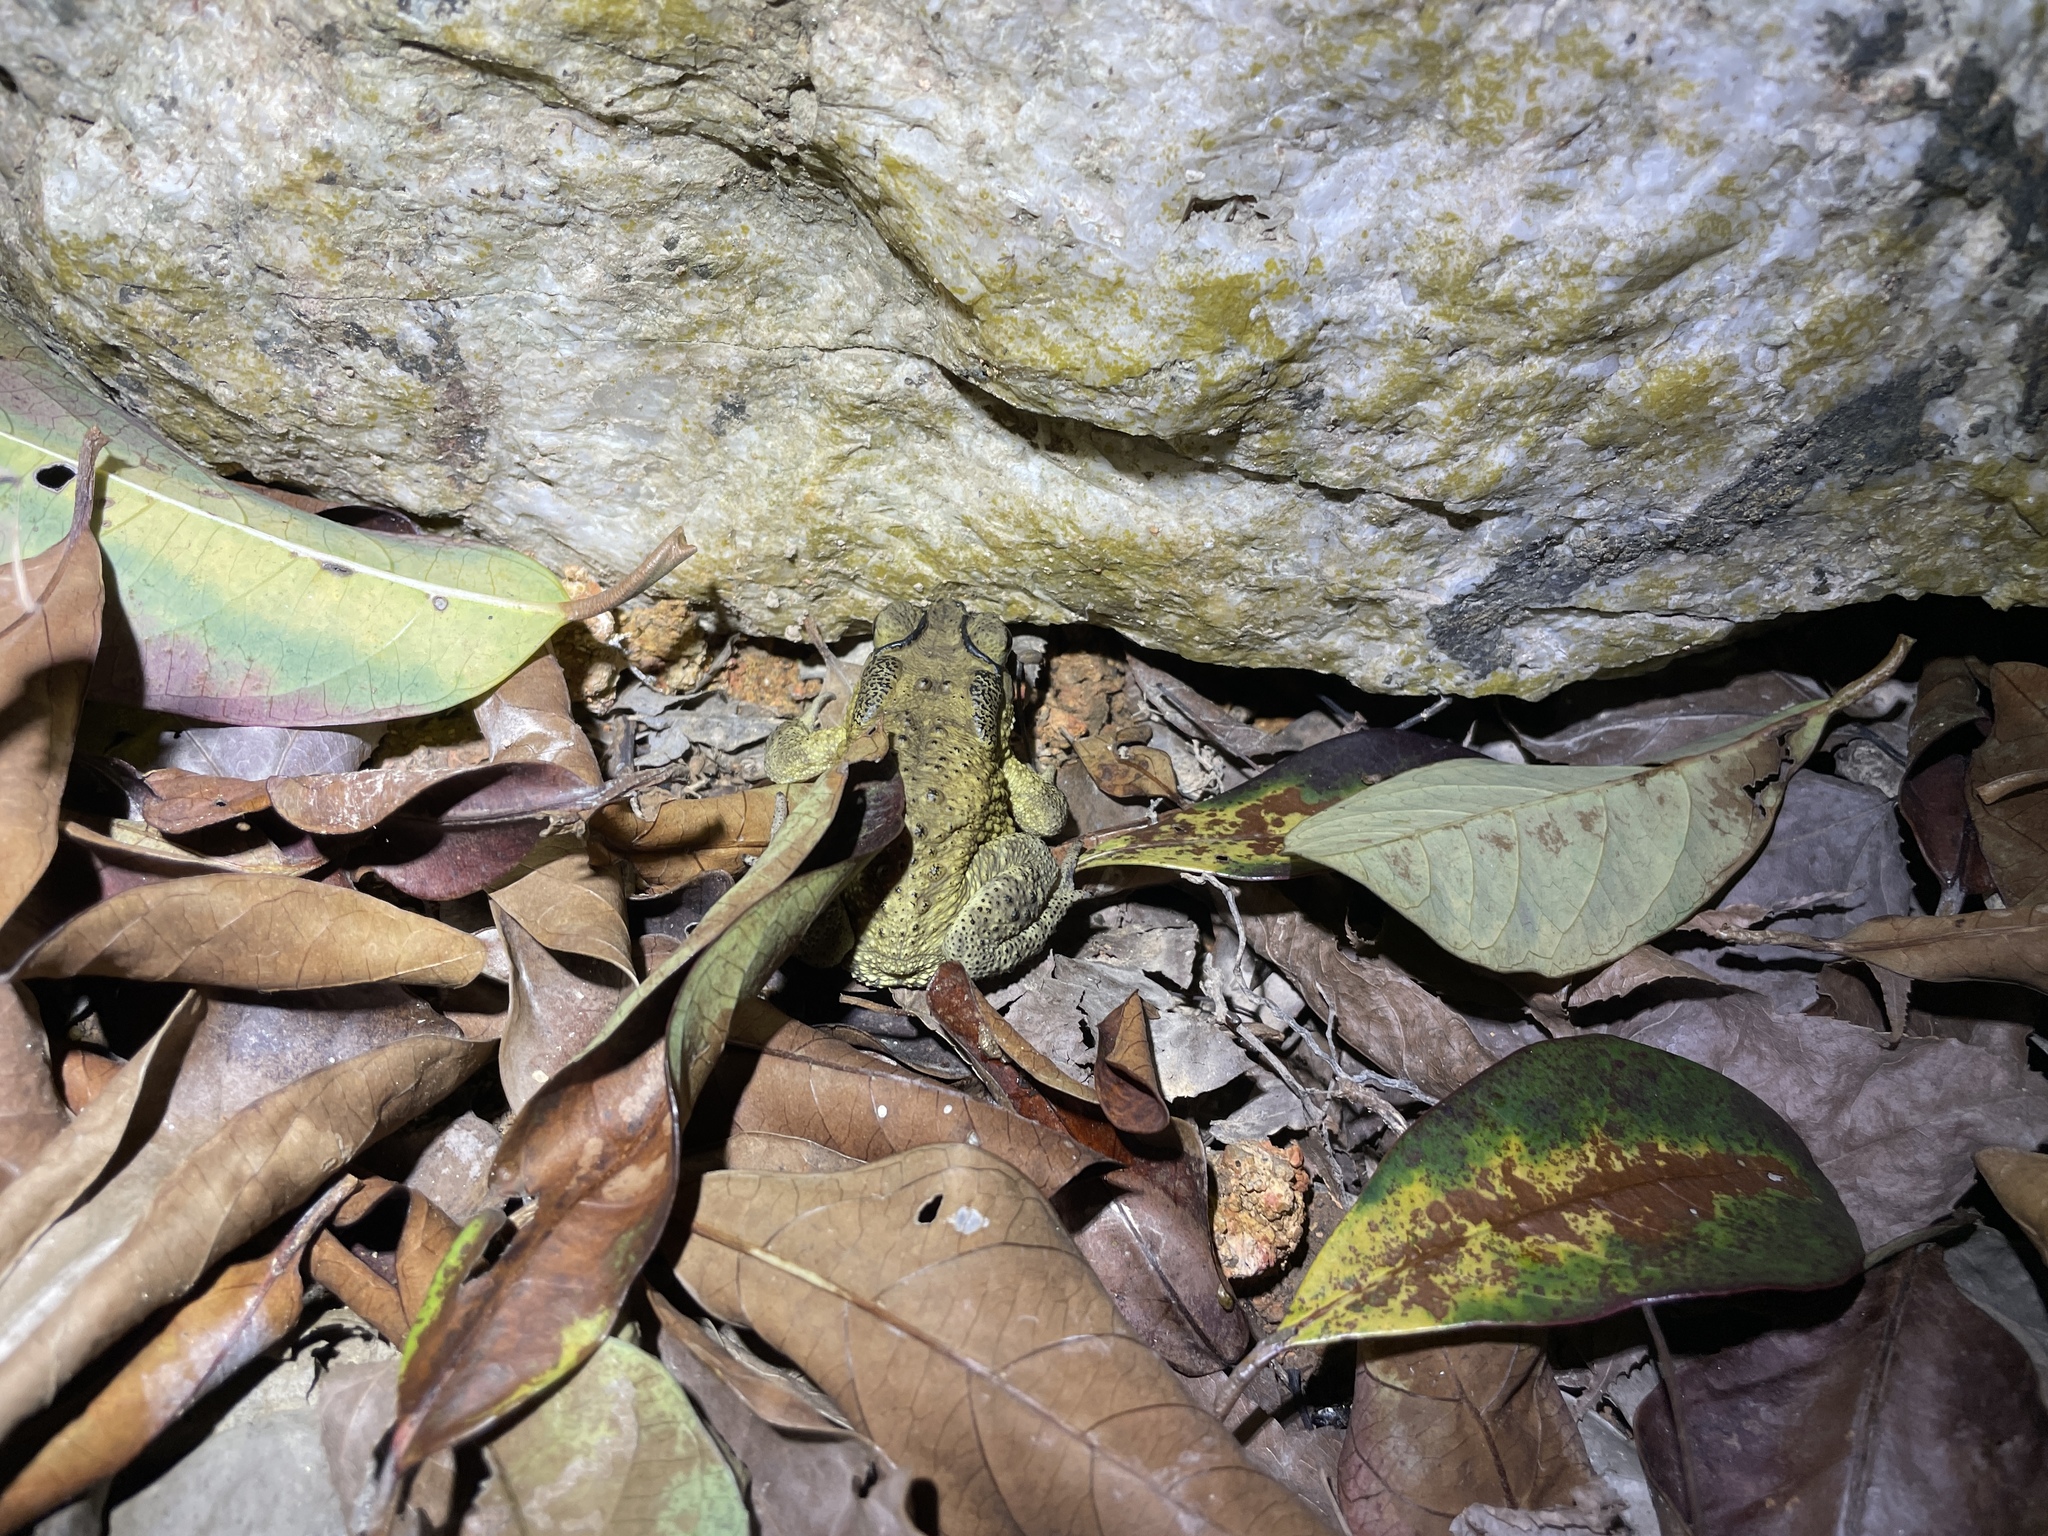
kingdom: Animalia
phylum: Chordata
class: Amphibia
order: Anura
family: Bufonidae
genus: Duttaphrynus
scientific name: Duttaphrynus melanostictus
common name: Common sunda toad
